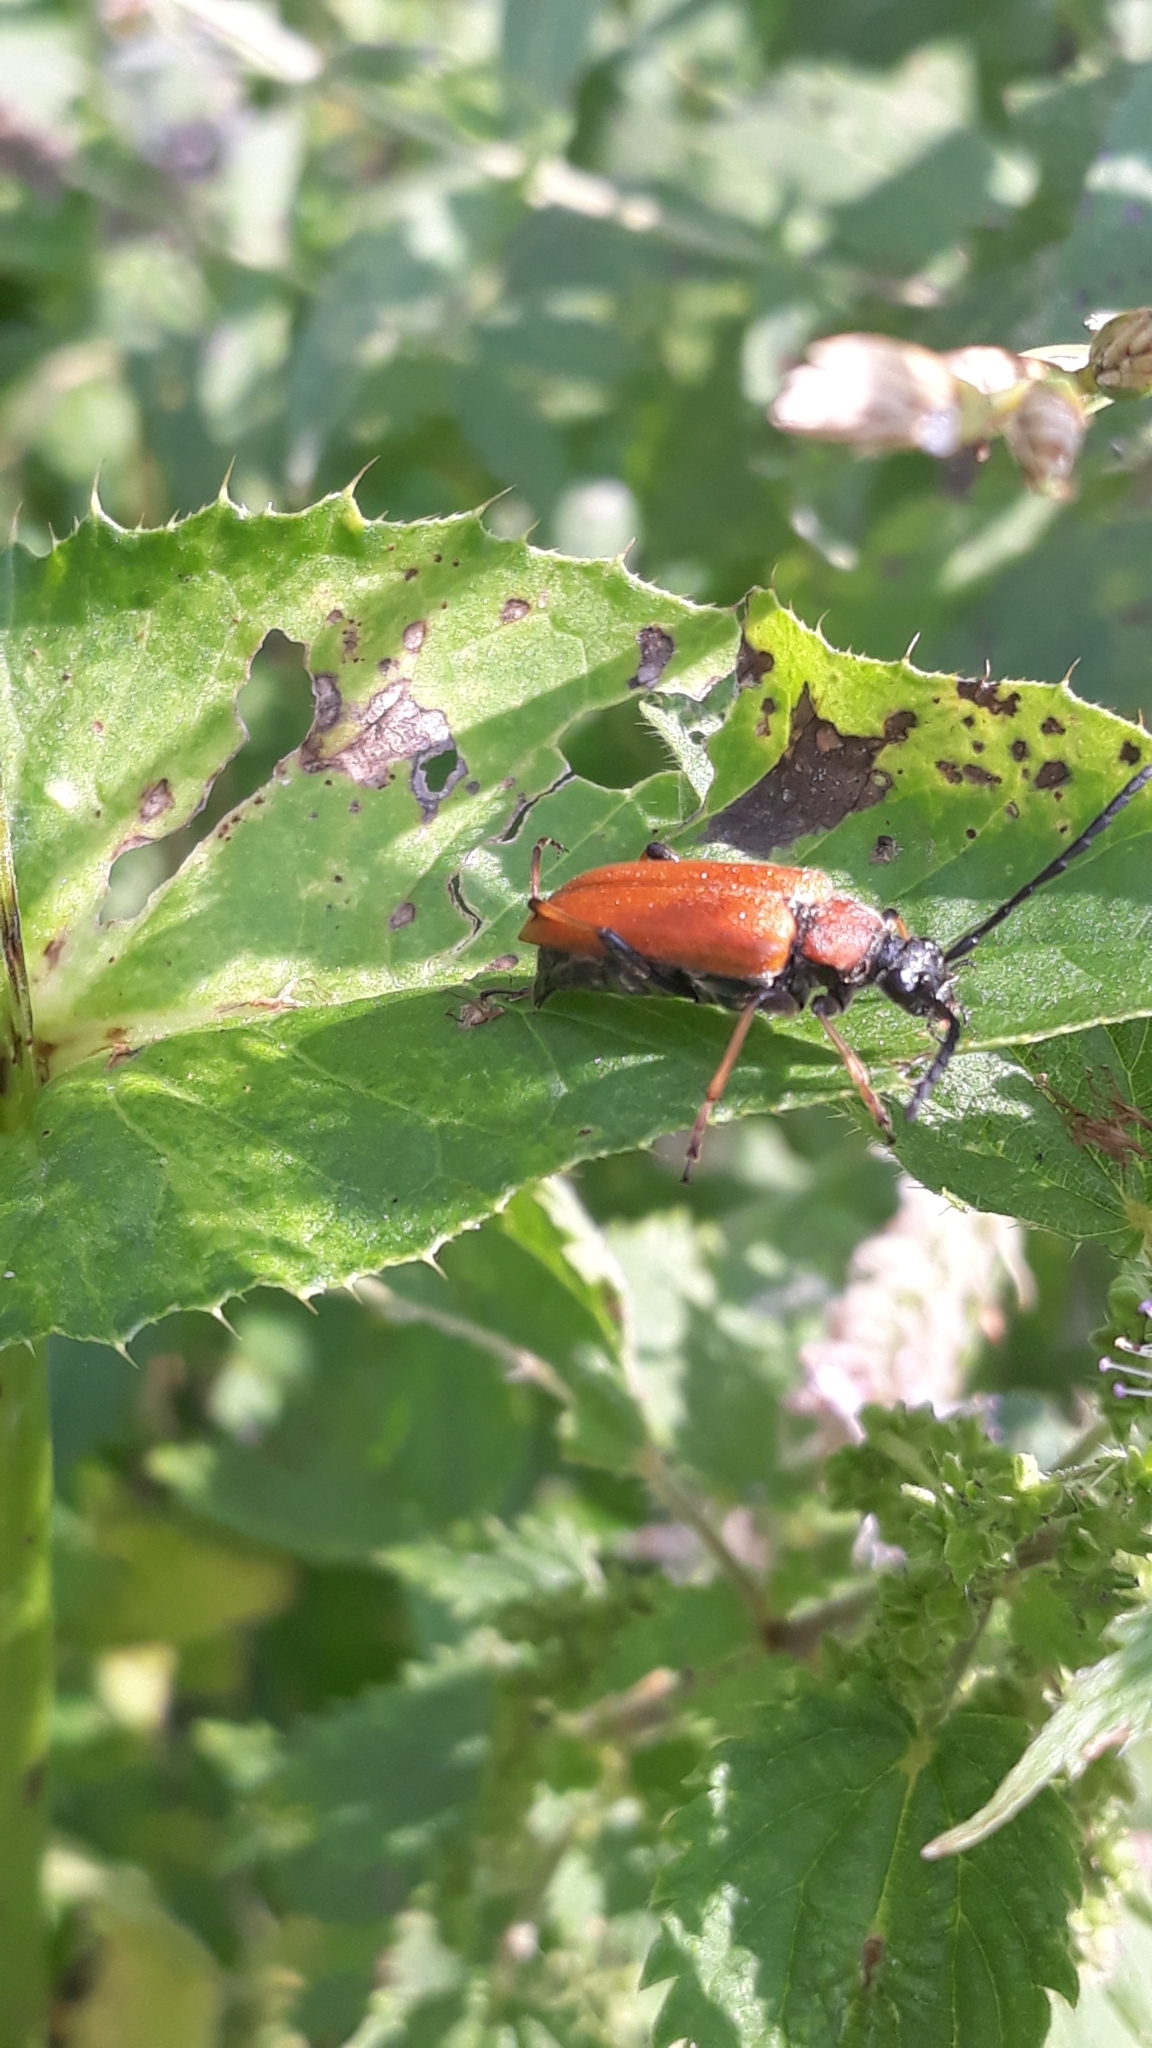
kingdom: Animalia
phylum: Arthropoda
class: Insecta
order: Coleoptera
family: Cerambycidae
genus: Stictoleptura
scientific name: Stictoleptura rubra
